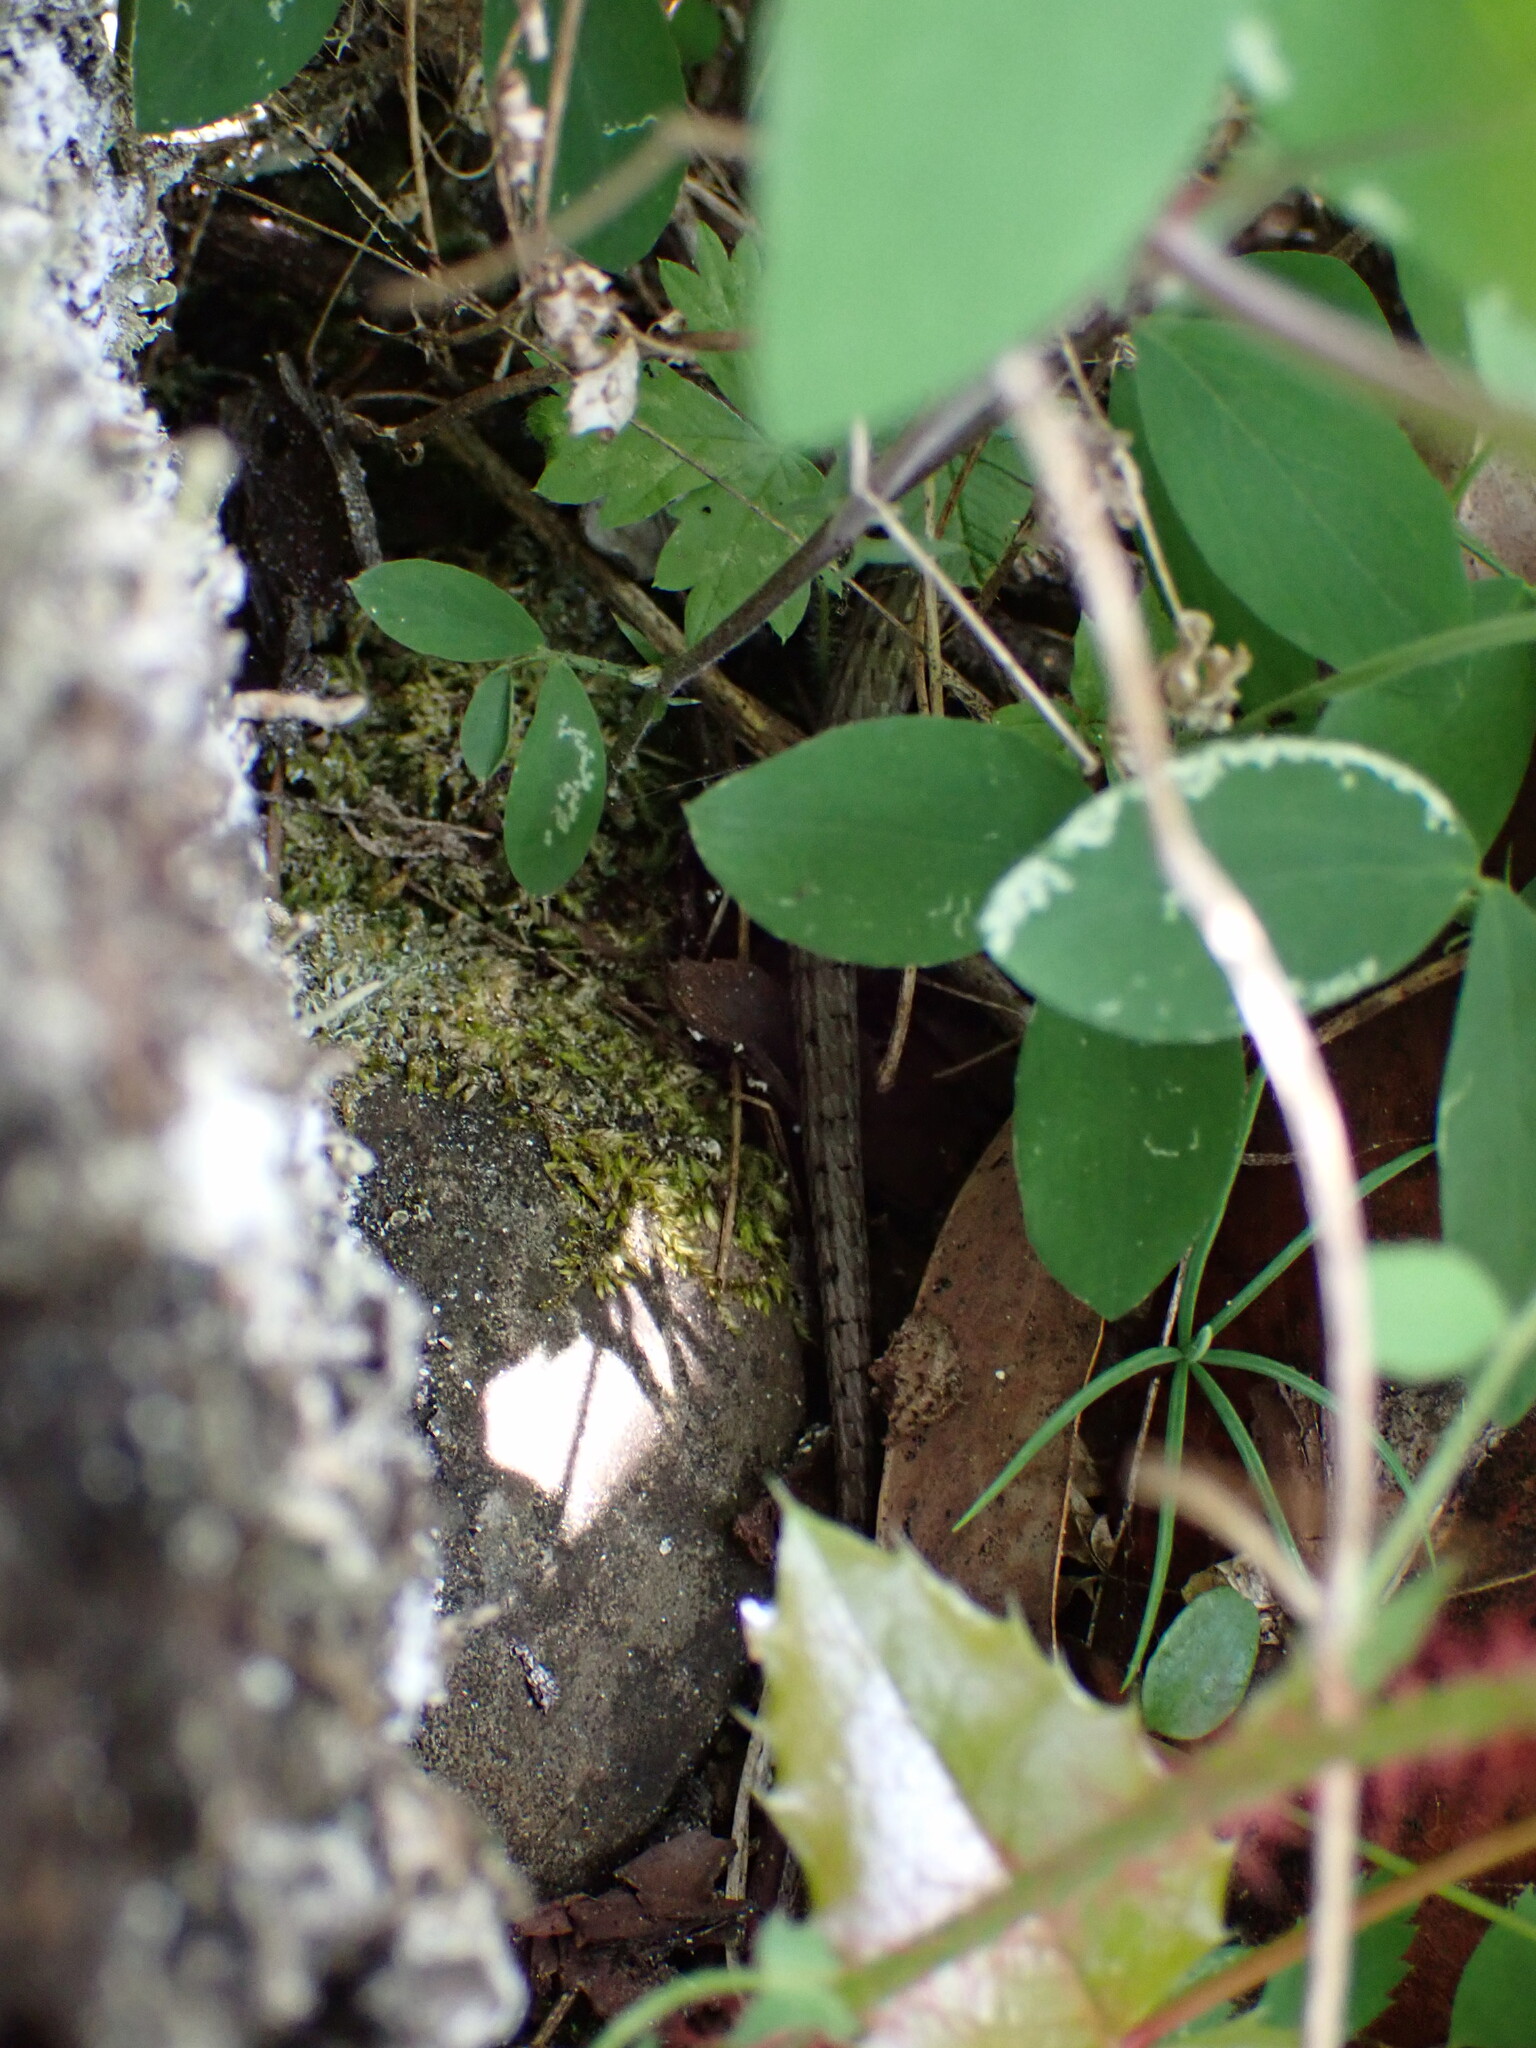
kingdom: Animalia
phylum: Chordata
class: Squamata
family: Anguidae
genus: Elgaria
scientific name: Elgaria coerulea
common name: Northern alligator lizard
